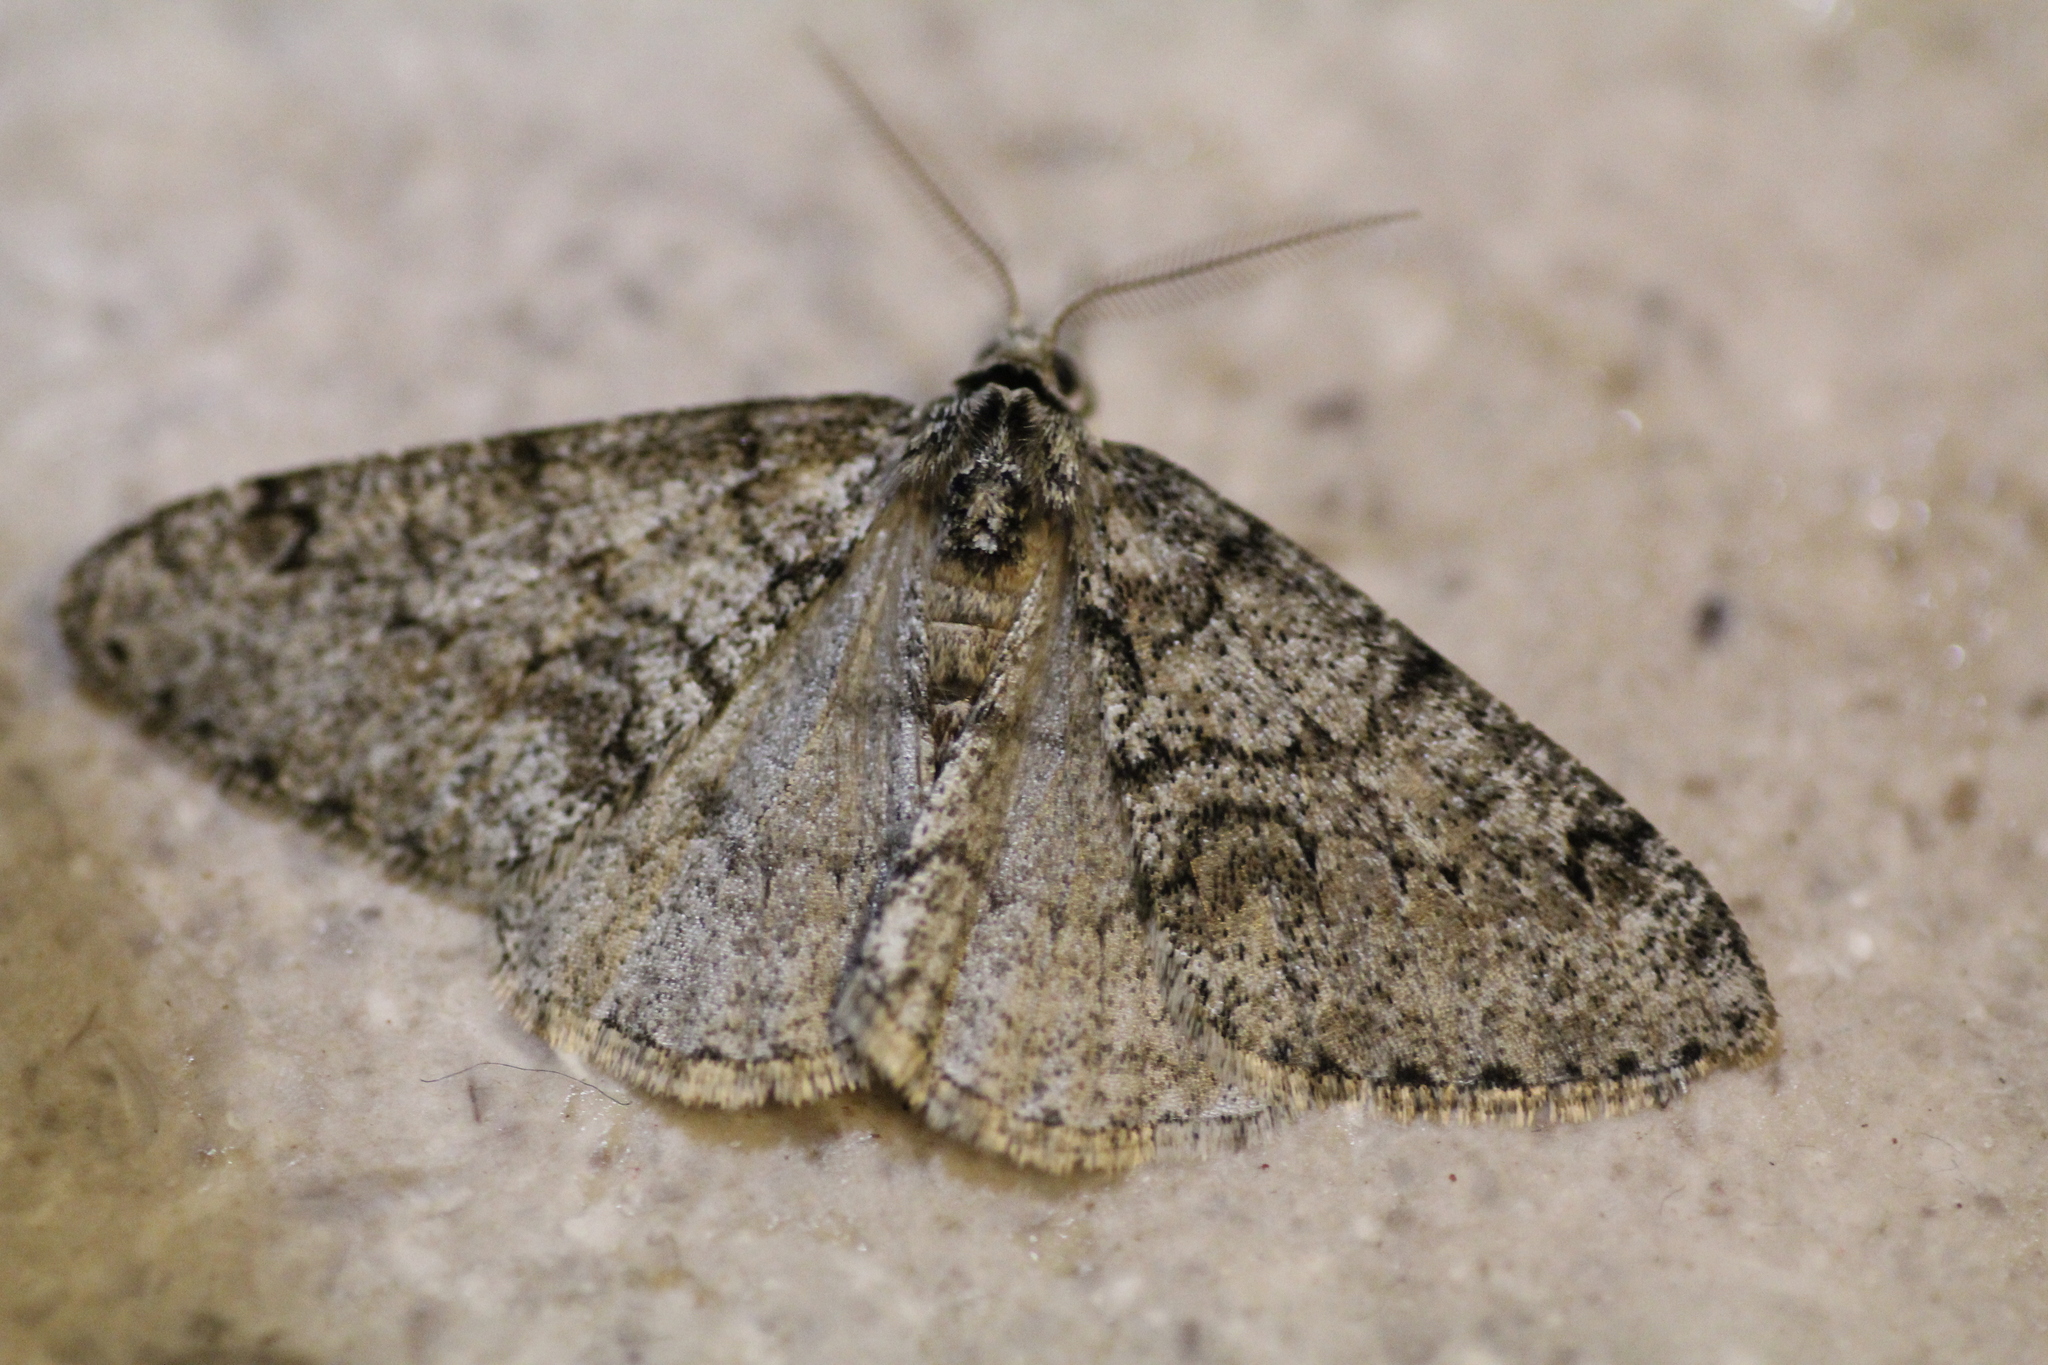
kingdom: Animalia
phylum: Arthropoda
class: Insecta
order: Lepidoptera
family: Geometridae
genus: Phigalia
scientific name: Phigalia denticulata
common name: Toothed phigalia
